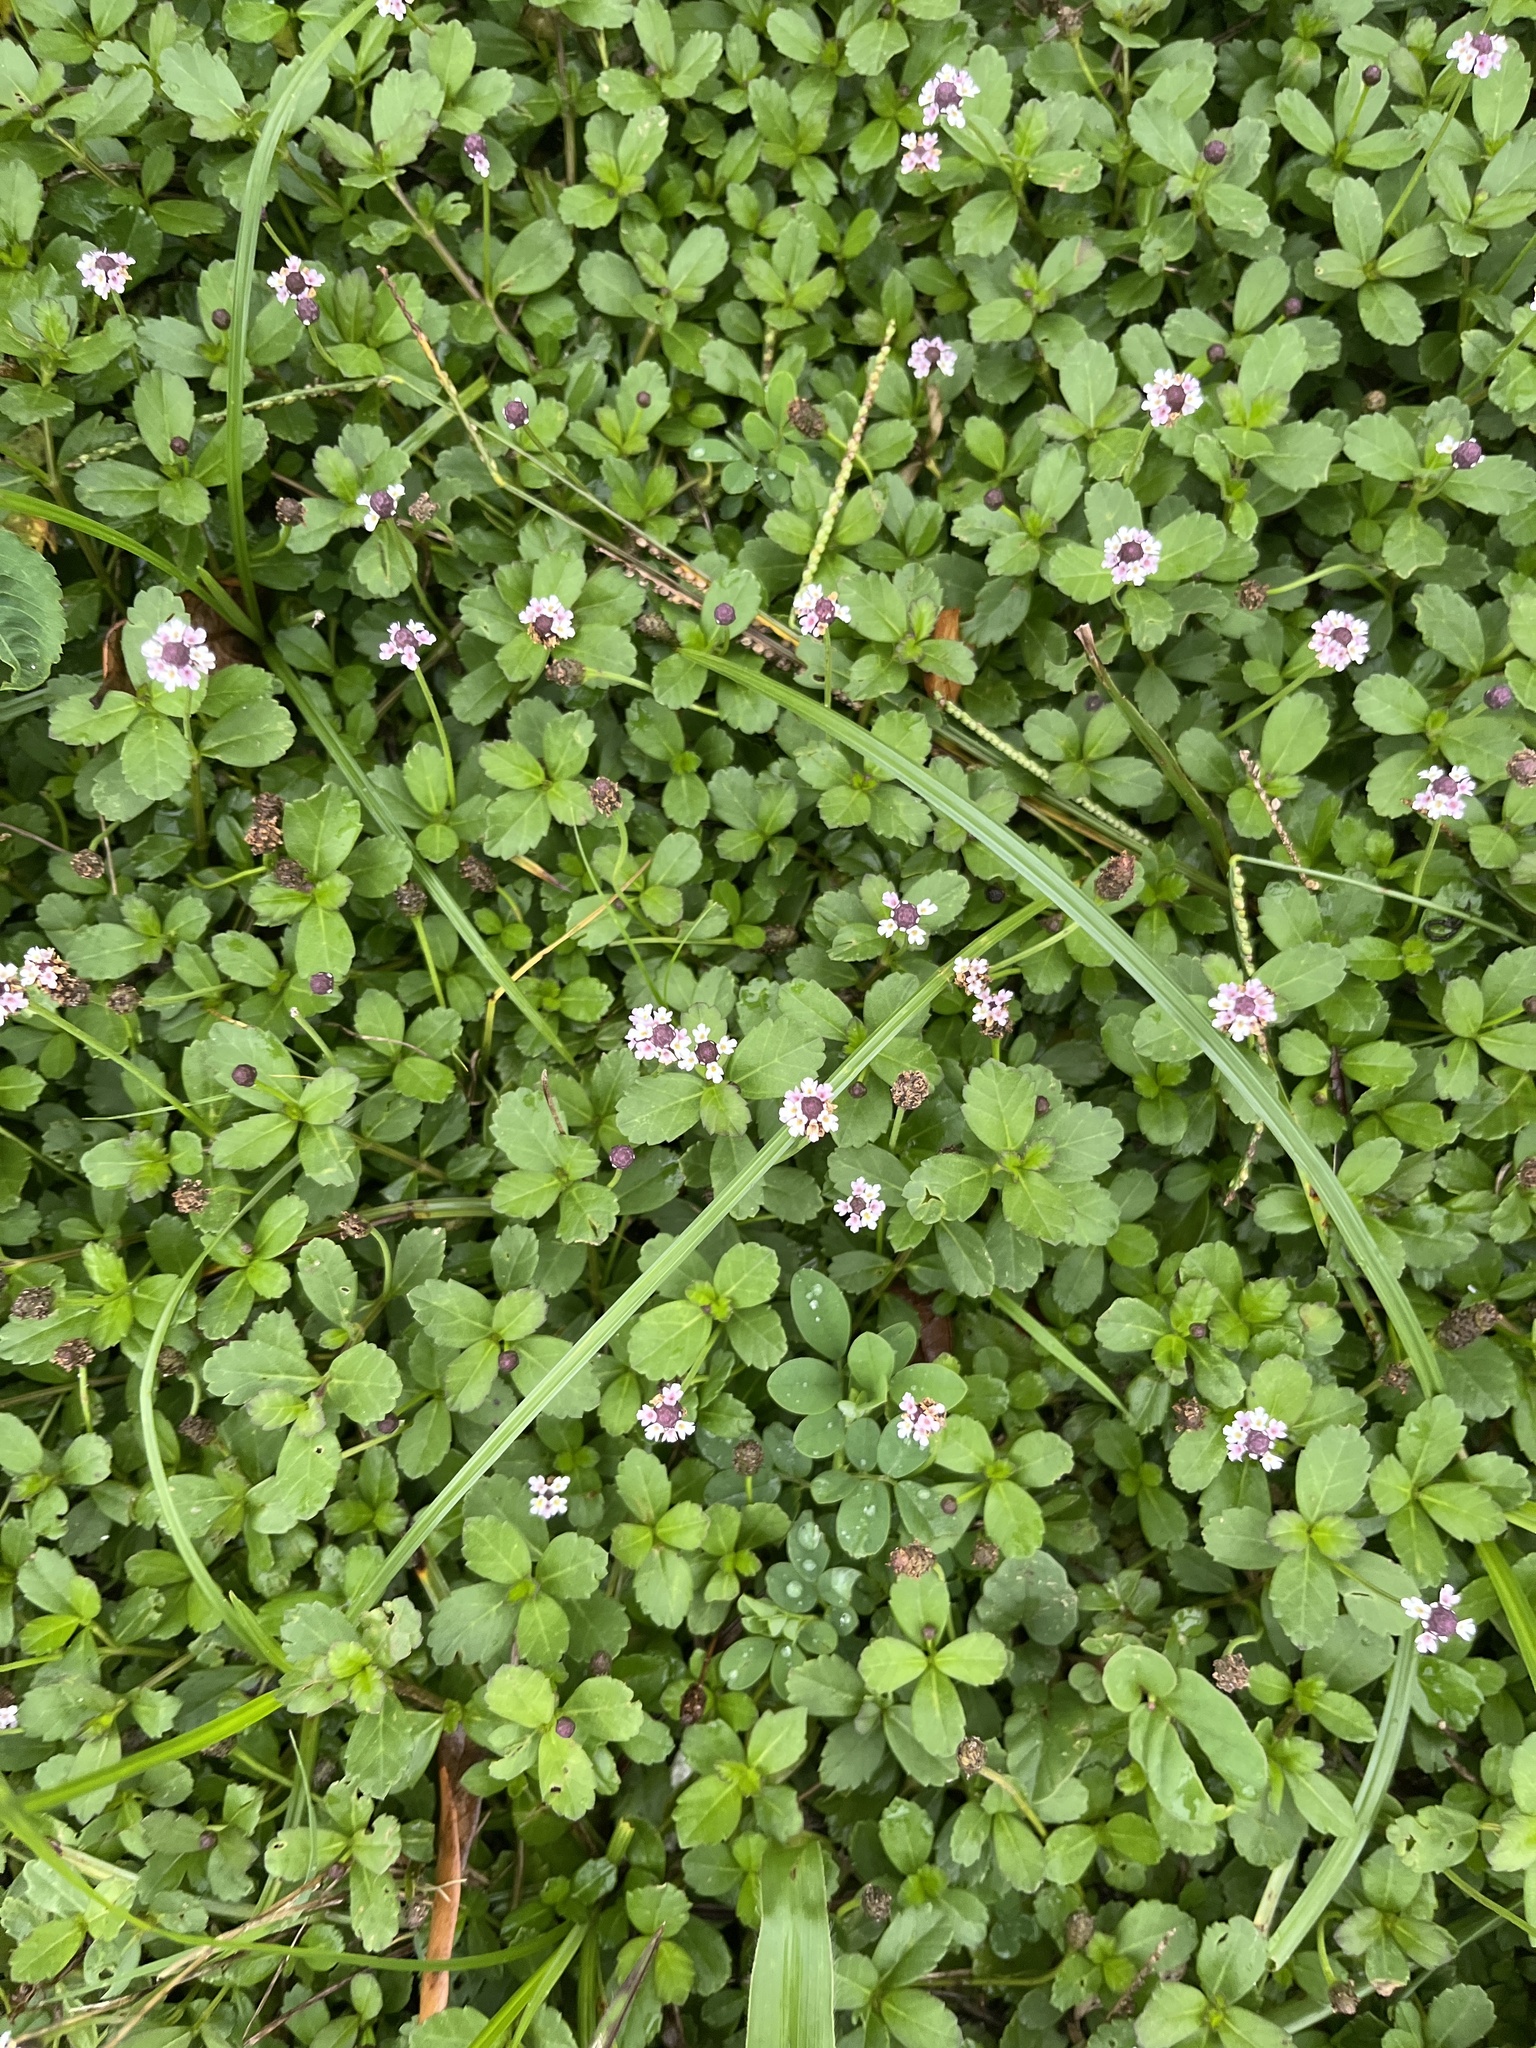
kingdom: Plantae
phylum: Tracheophyta
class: Magnoliopsida
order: Lamiales
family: Verbenaceae
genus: Phyla
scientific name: Phyla nodiflora
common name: Frogfruit
